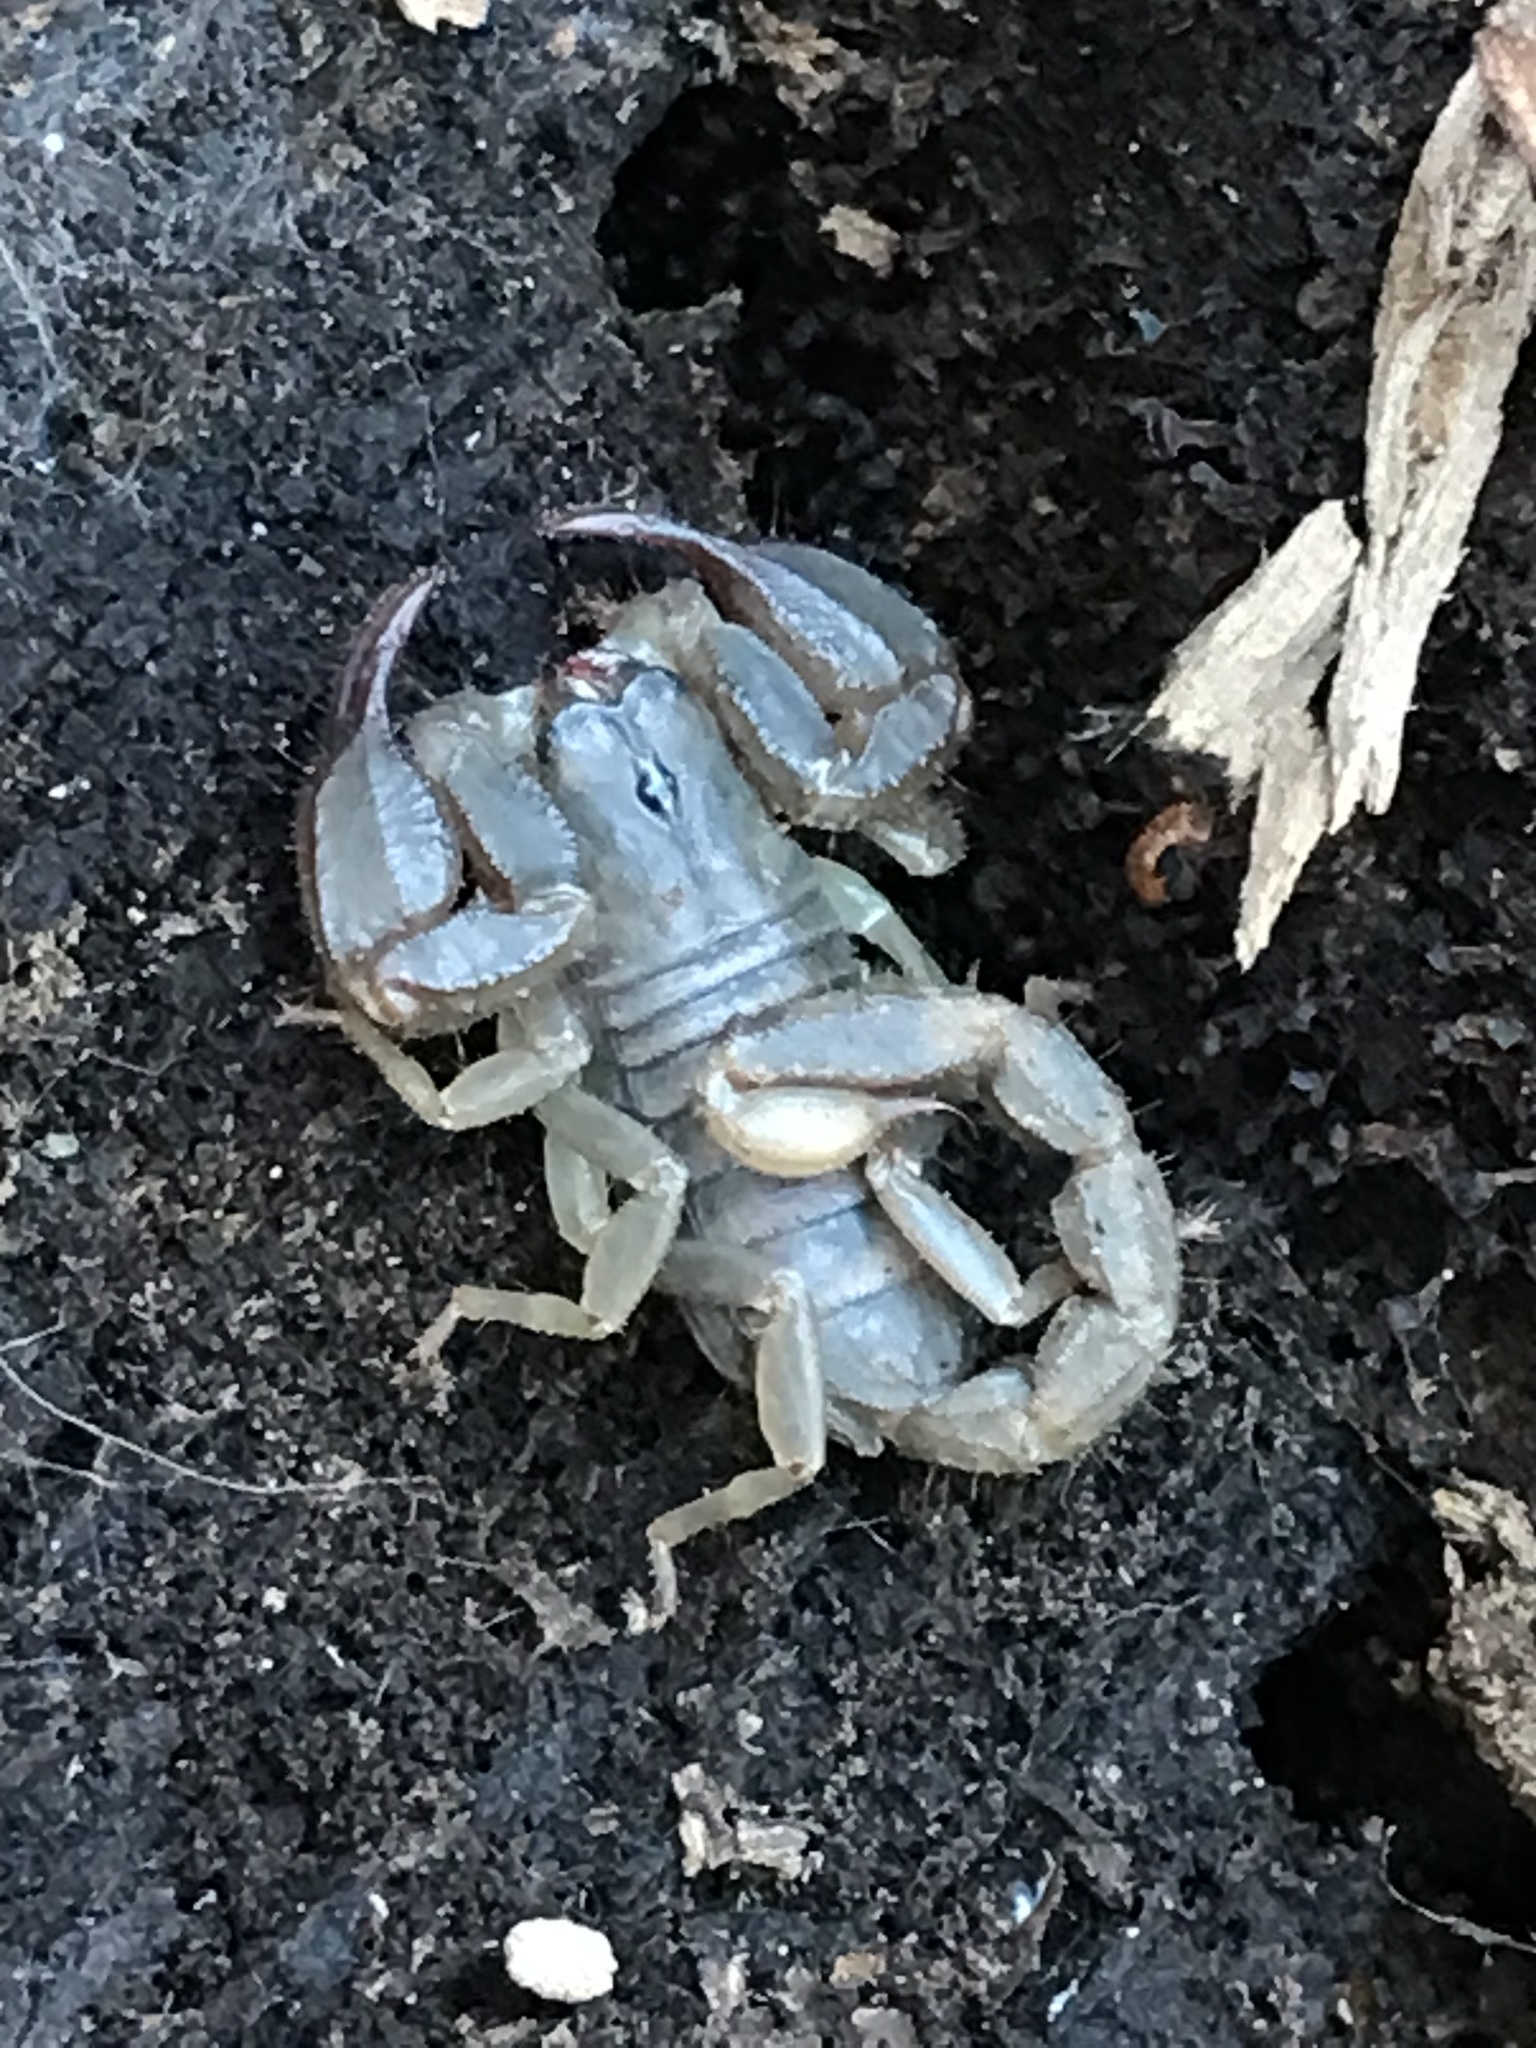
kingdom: Animalia
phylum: Arthropoda
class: Arachnida
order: Scorpiones
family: Chactidae
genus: Uroctonus
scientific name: Uroctonus mordax
